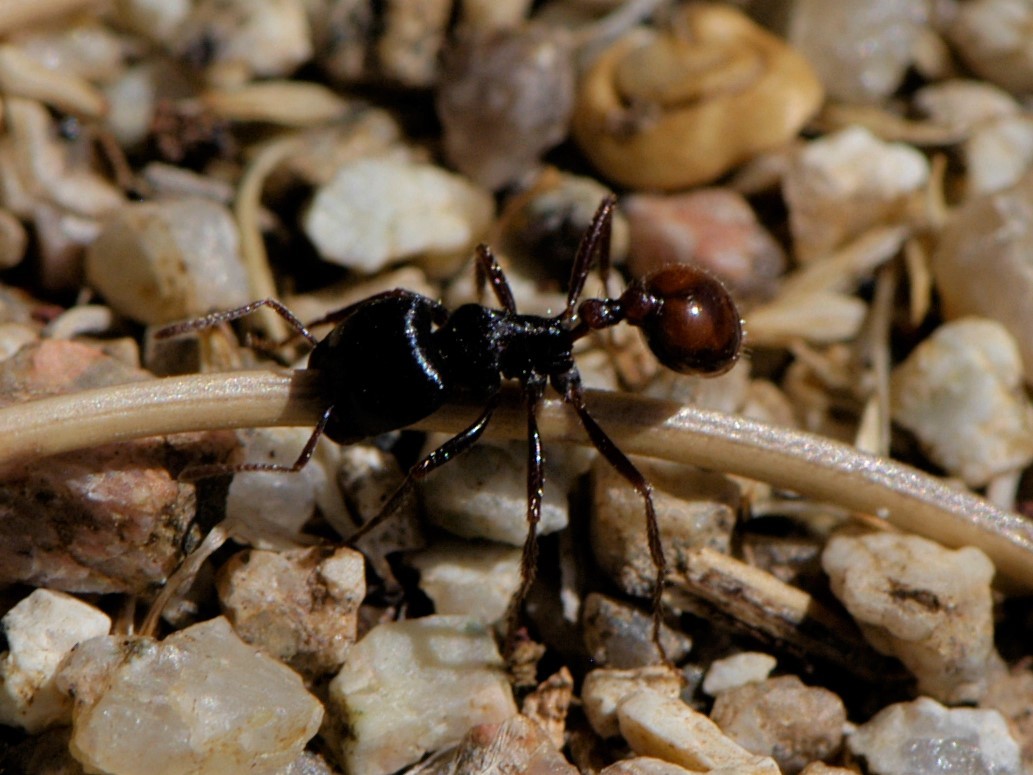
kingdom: Animalia
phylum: Arthropoda
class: Insecta
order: Hymenoptera
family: Formicidae
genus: Pogonomyrmex
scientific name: Pogonomyrmex rugosus
